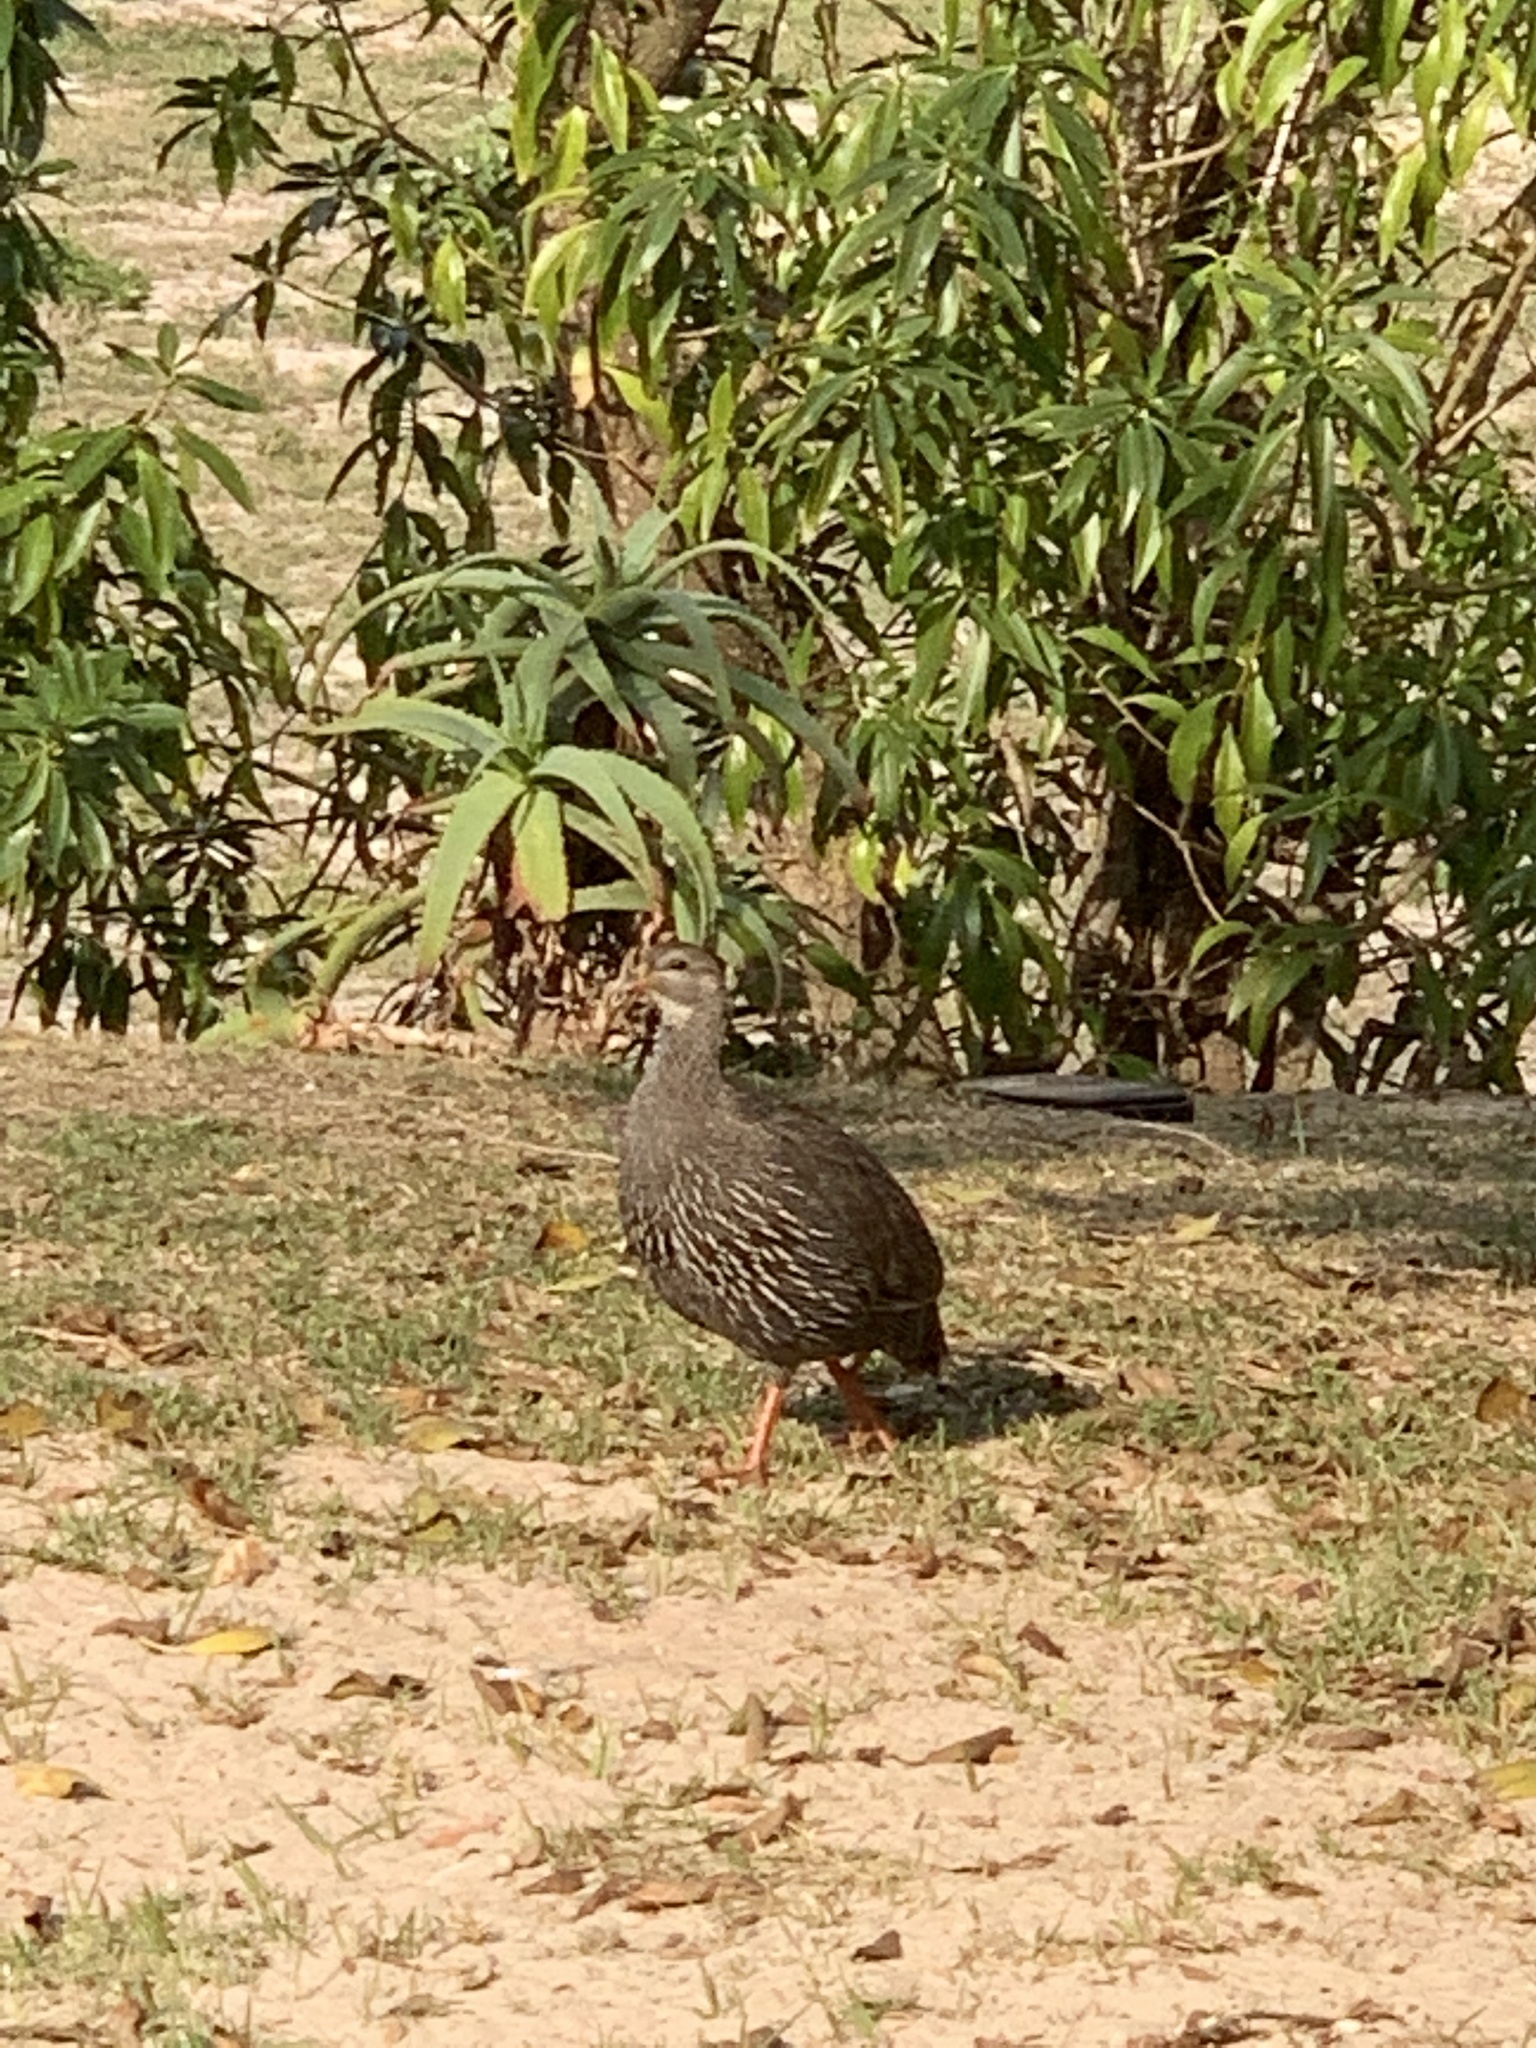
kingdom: Animalia
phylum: Chordata
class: Aves
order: Galliformes
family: Phasianidae
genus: Pternistis
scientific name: Pternistis capensis
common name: Cape spurfowl
